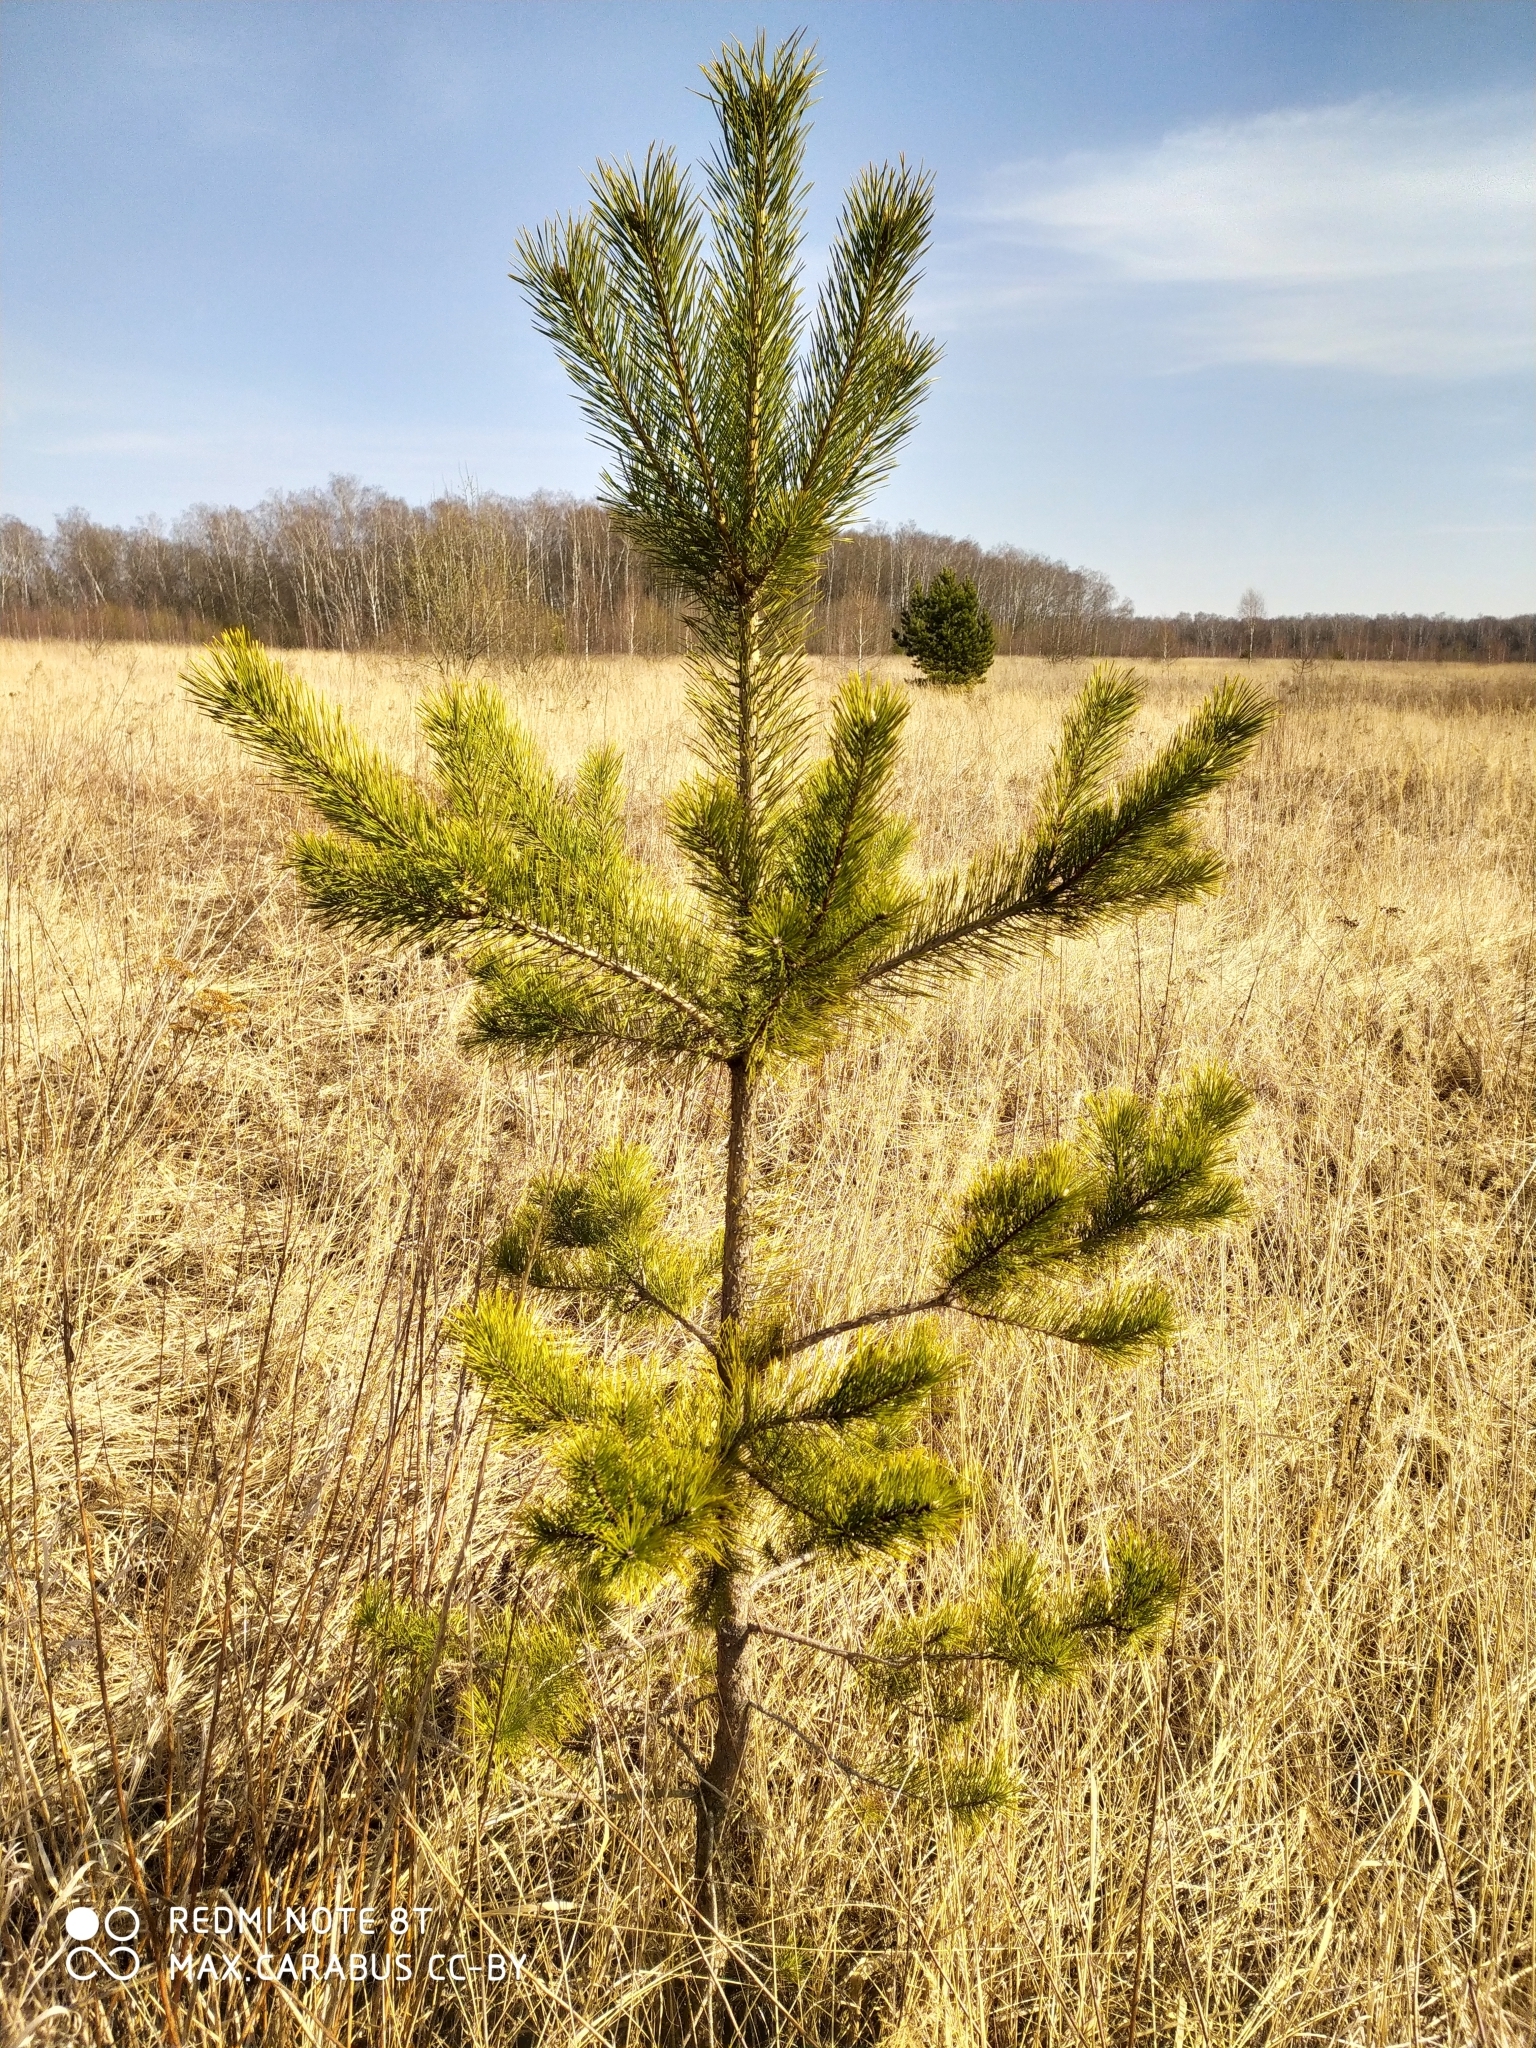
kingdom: Plantae
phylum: Tracheophyta
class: Pinopsida
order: Pinales
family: Pinaceae
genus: Pinus
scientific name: Pinus sylvestris
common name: Scots pine
